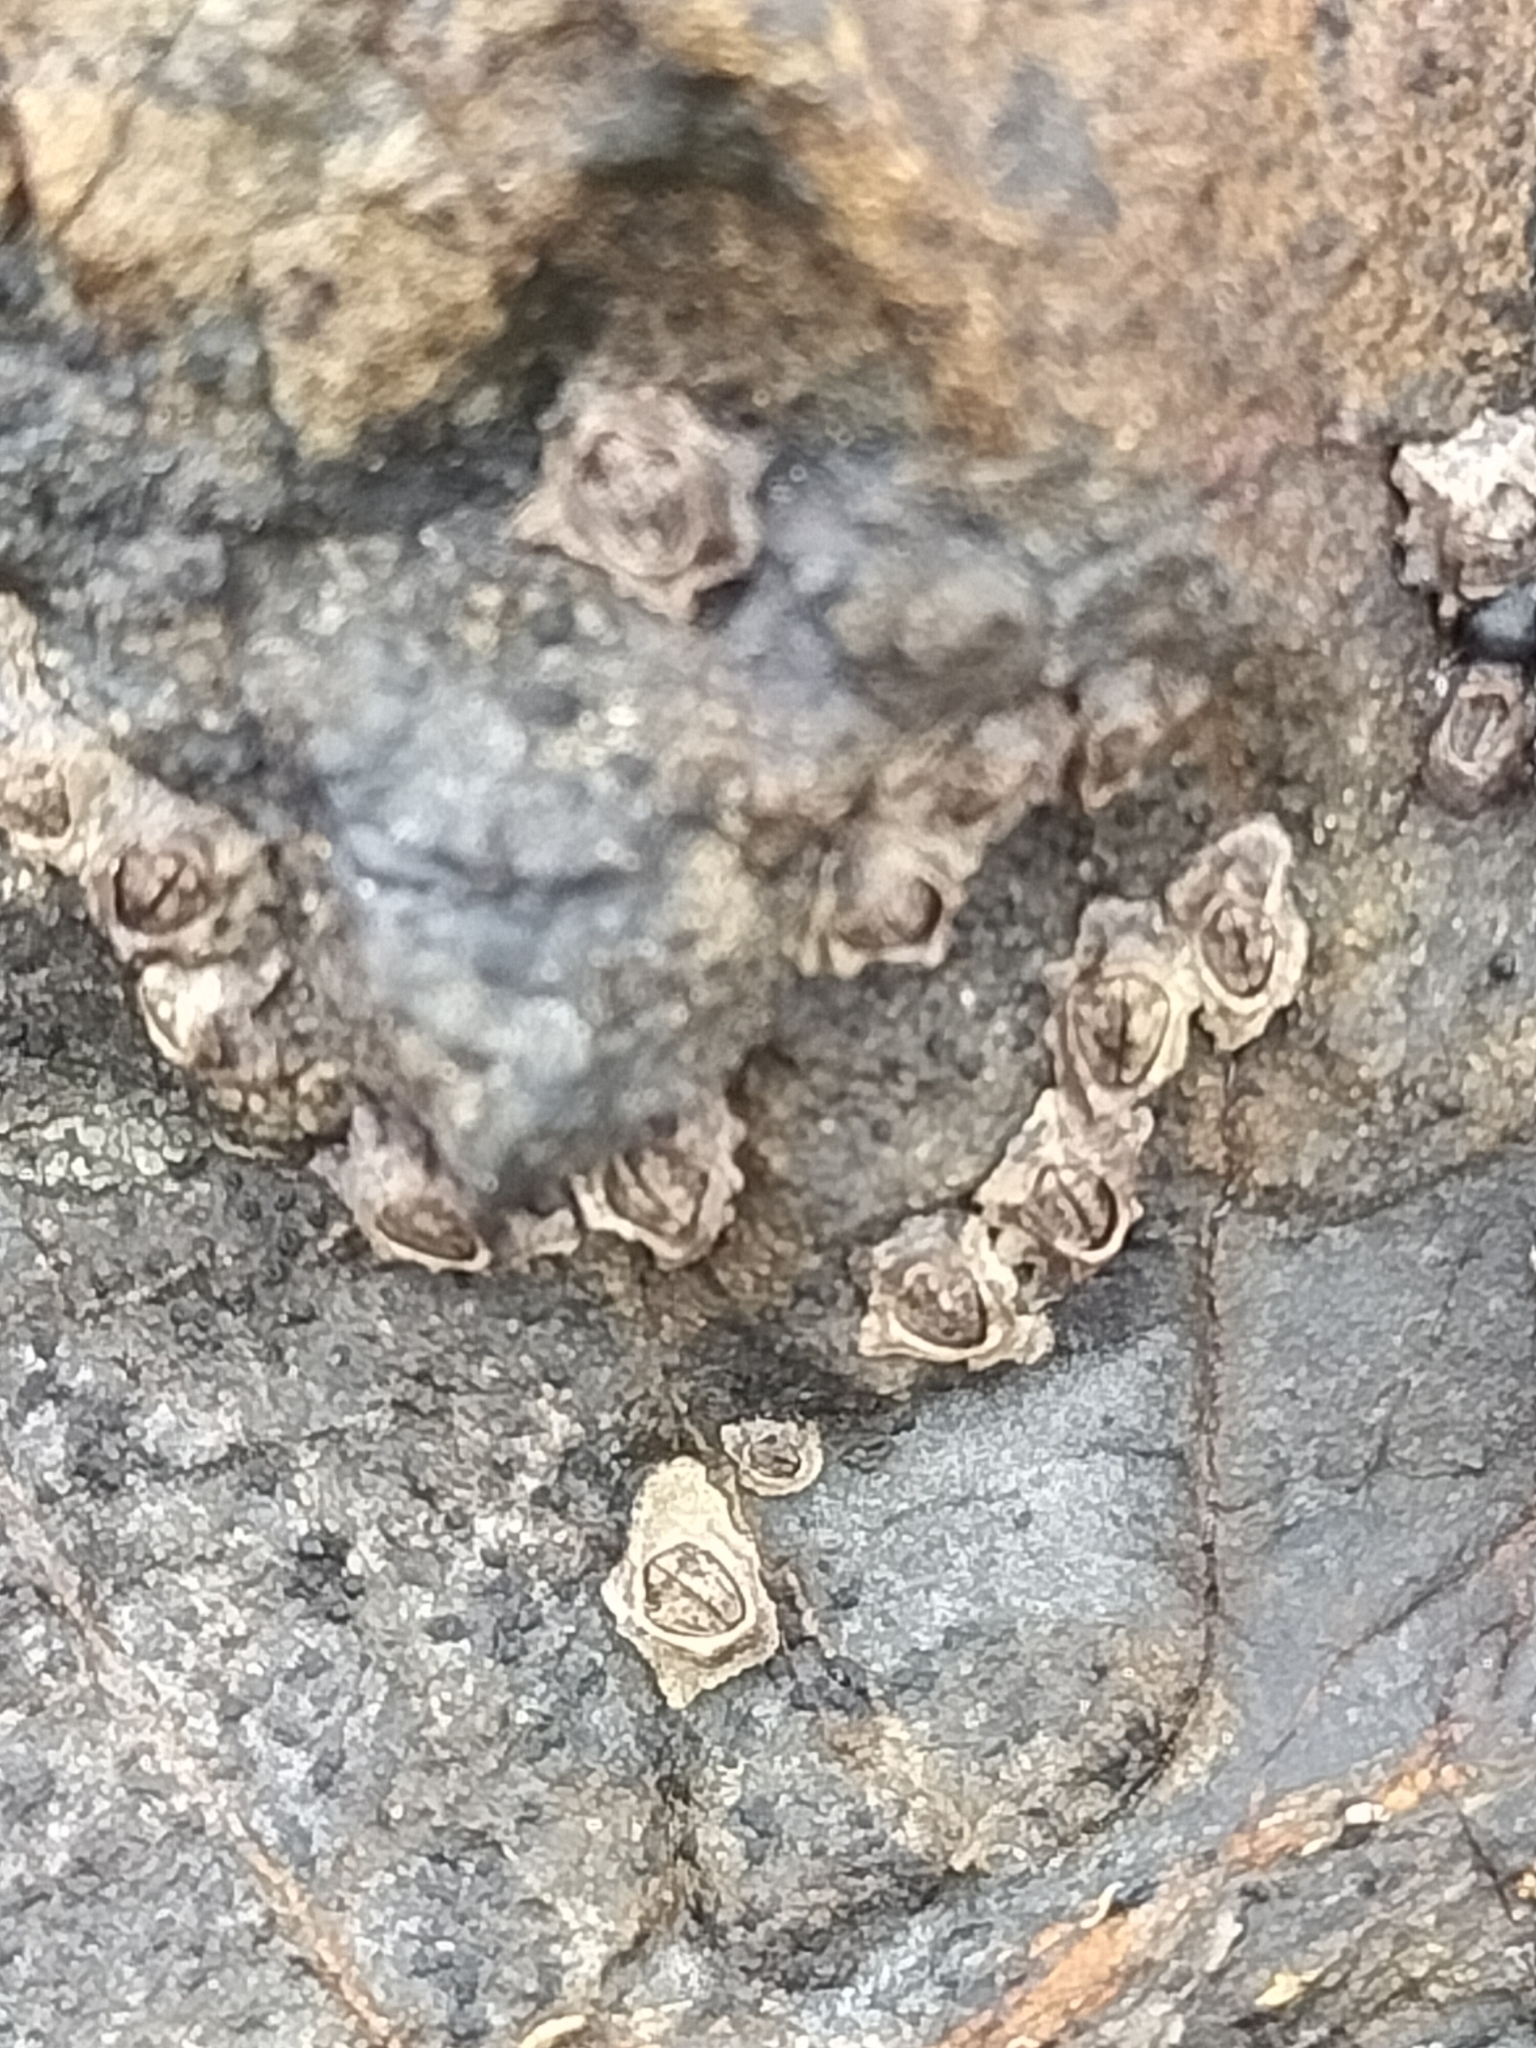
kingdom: Animalia
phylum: Arthropoda
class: Maxillopoda
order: Sessilia
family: Chthamalidae
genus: Chamaesipho
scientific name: Chamaesipho columna
